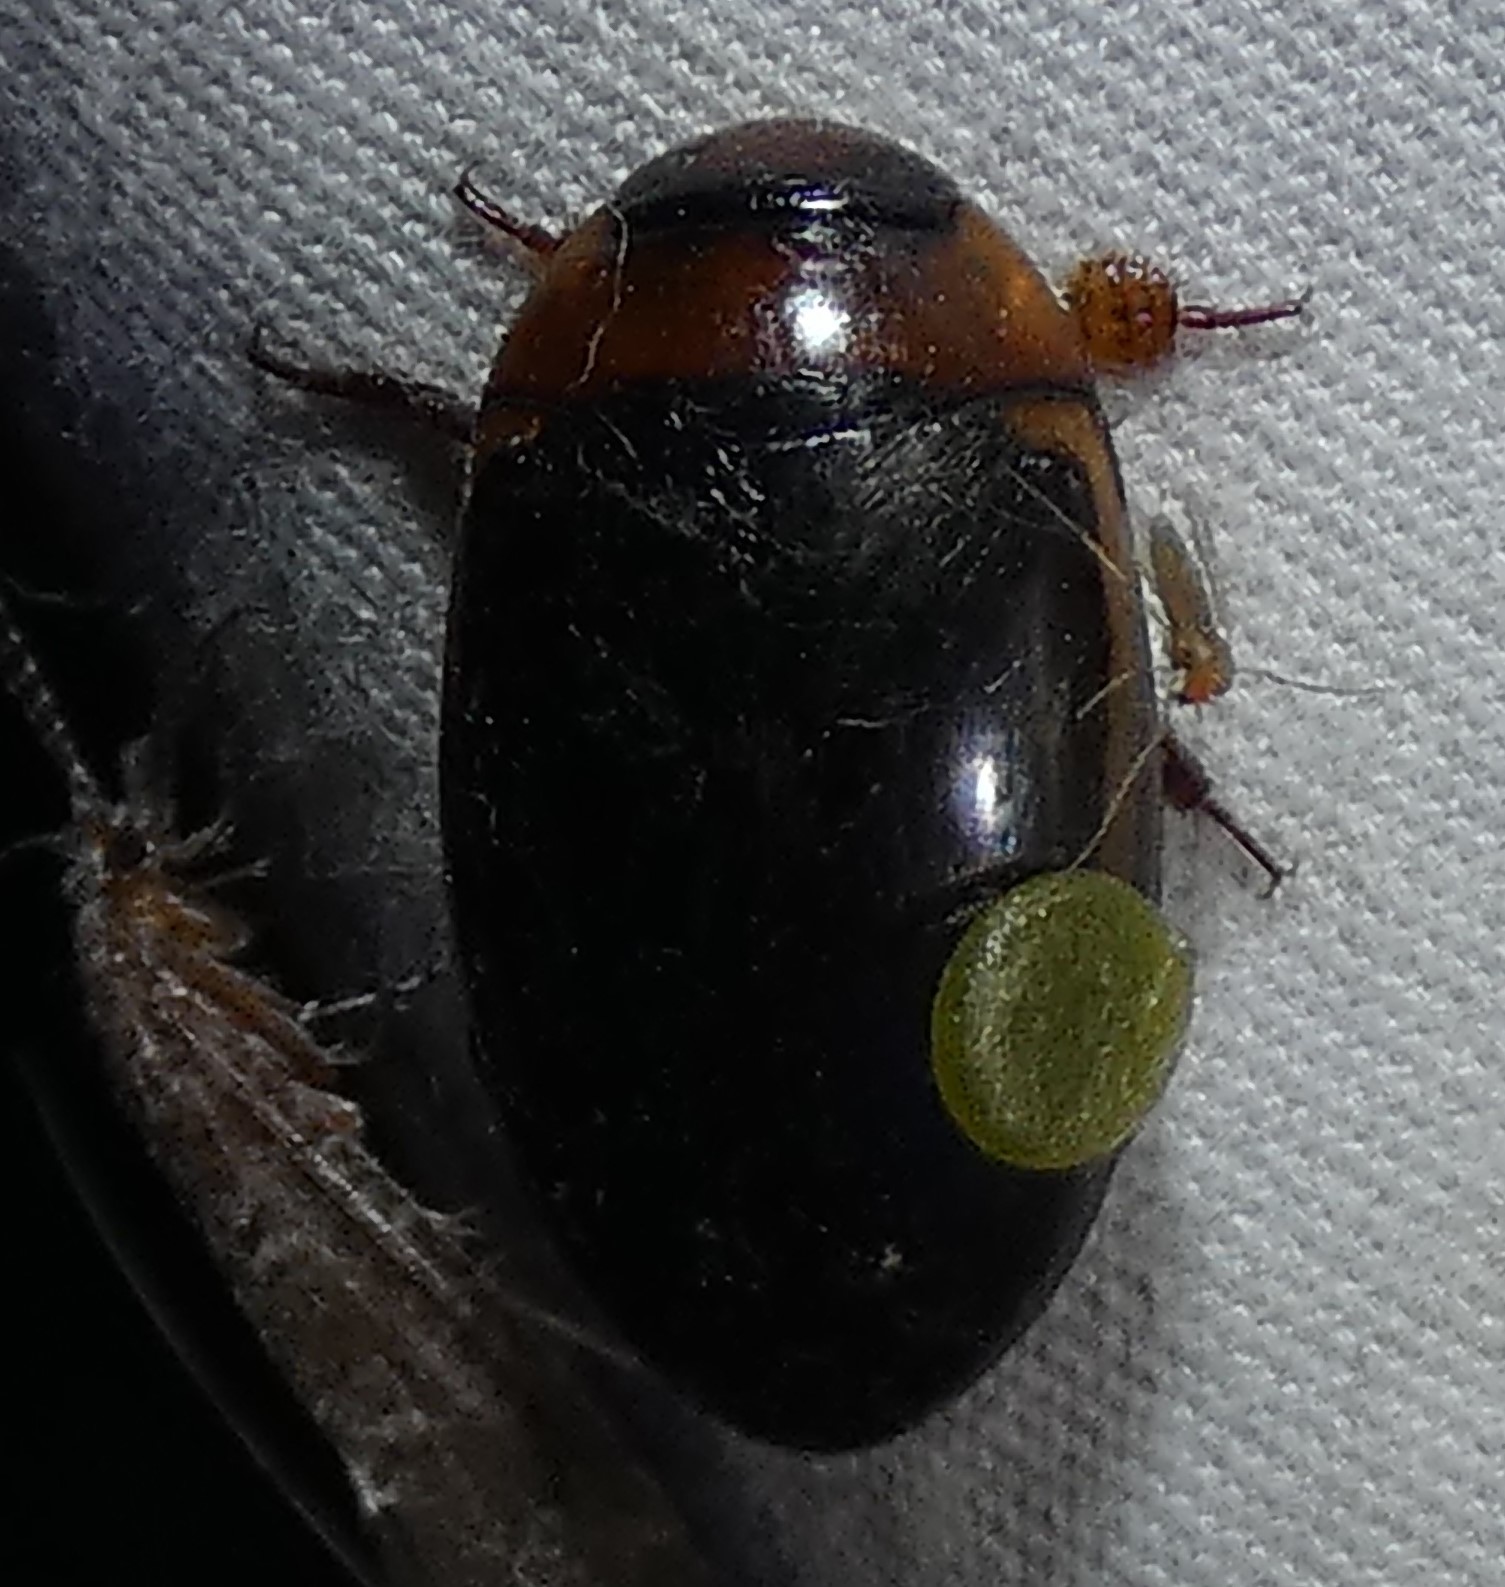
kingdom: Animalia
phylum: Arthropoda
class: Insecta
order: Coleoptera
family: Dytiscidae
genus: Hydaticus
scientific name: Hydaticus bimarginatus
